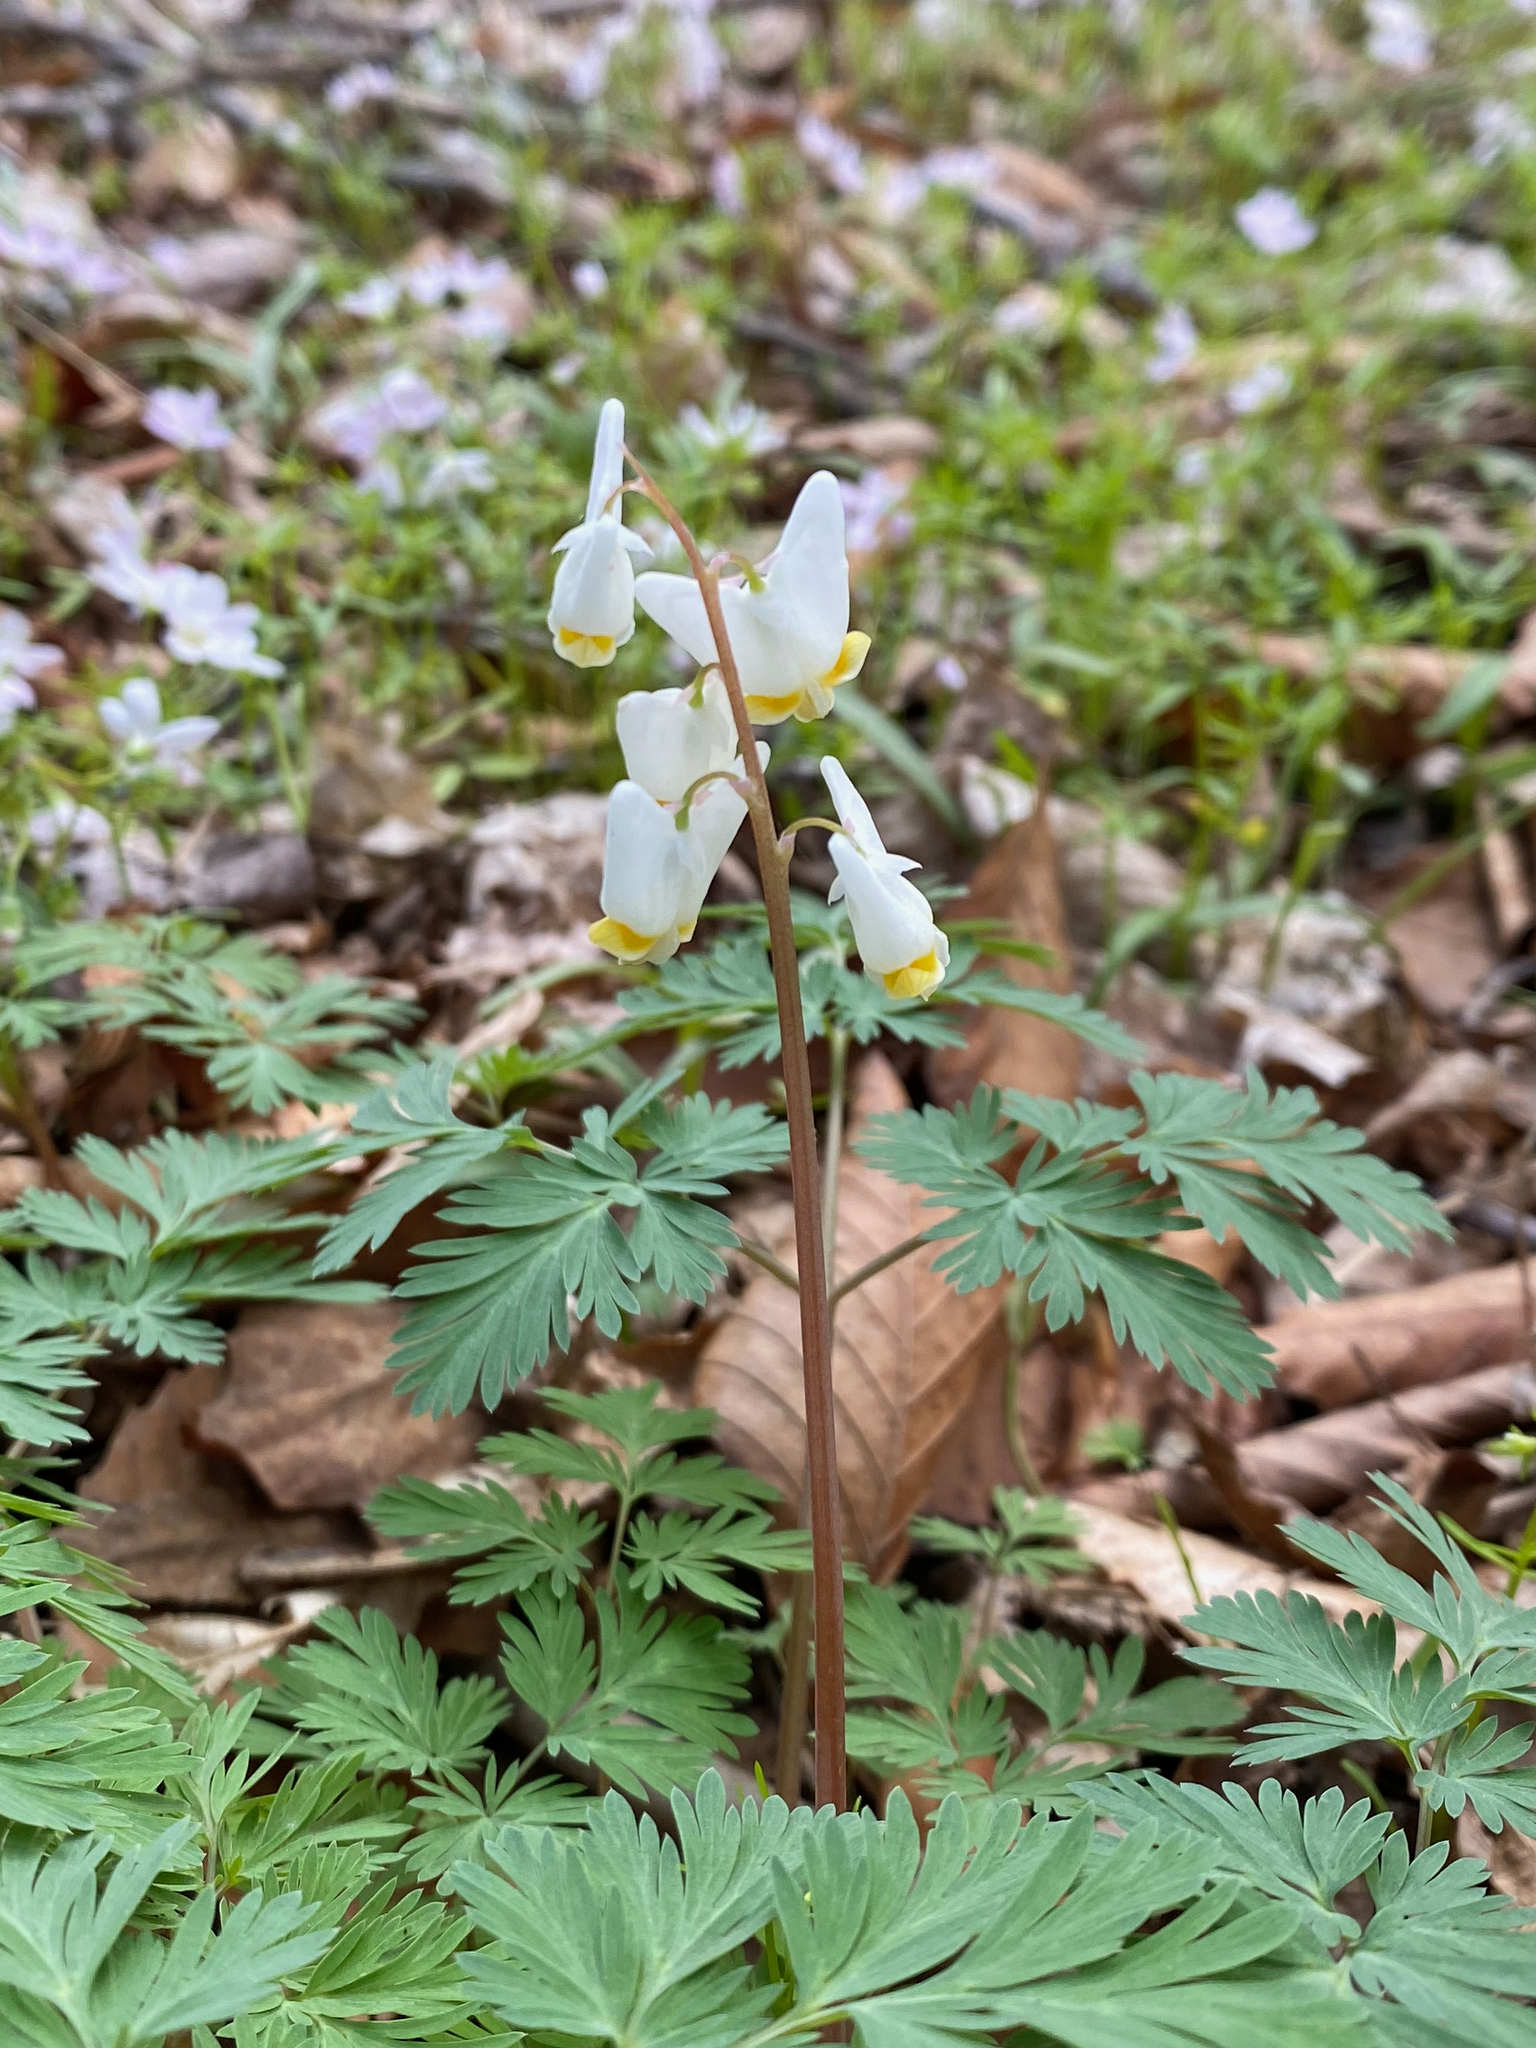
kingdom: Plantae
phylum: Tracheophyta
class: Magnoliopsida
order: Ranunculales
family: Papaveraceae
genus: Dicentra
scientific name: Dicentra cucullaria
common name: Dutchman's breeches
